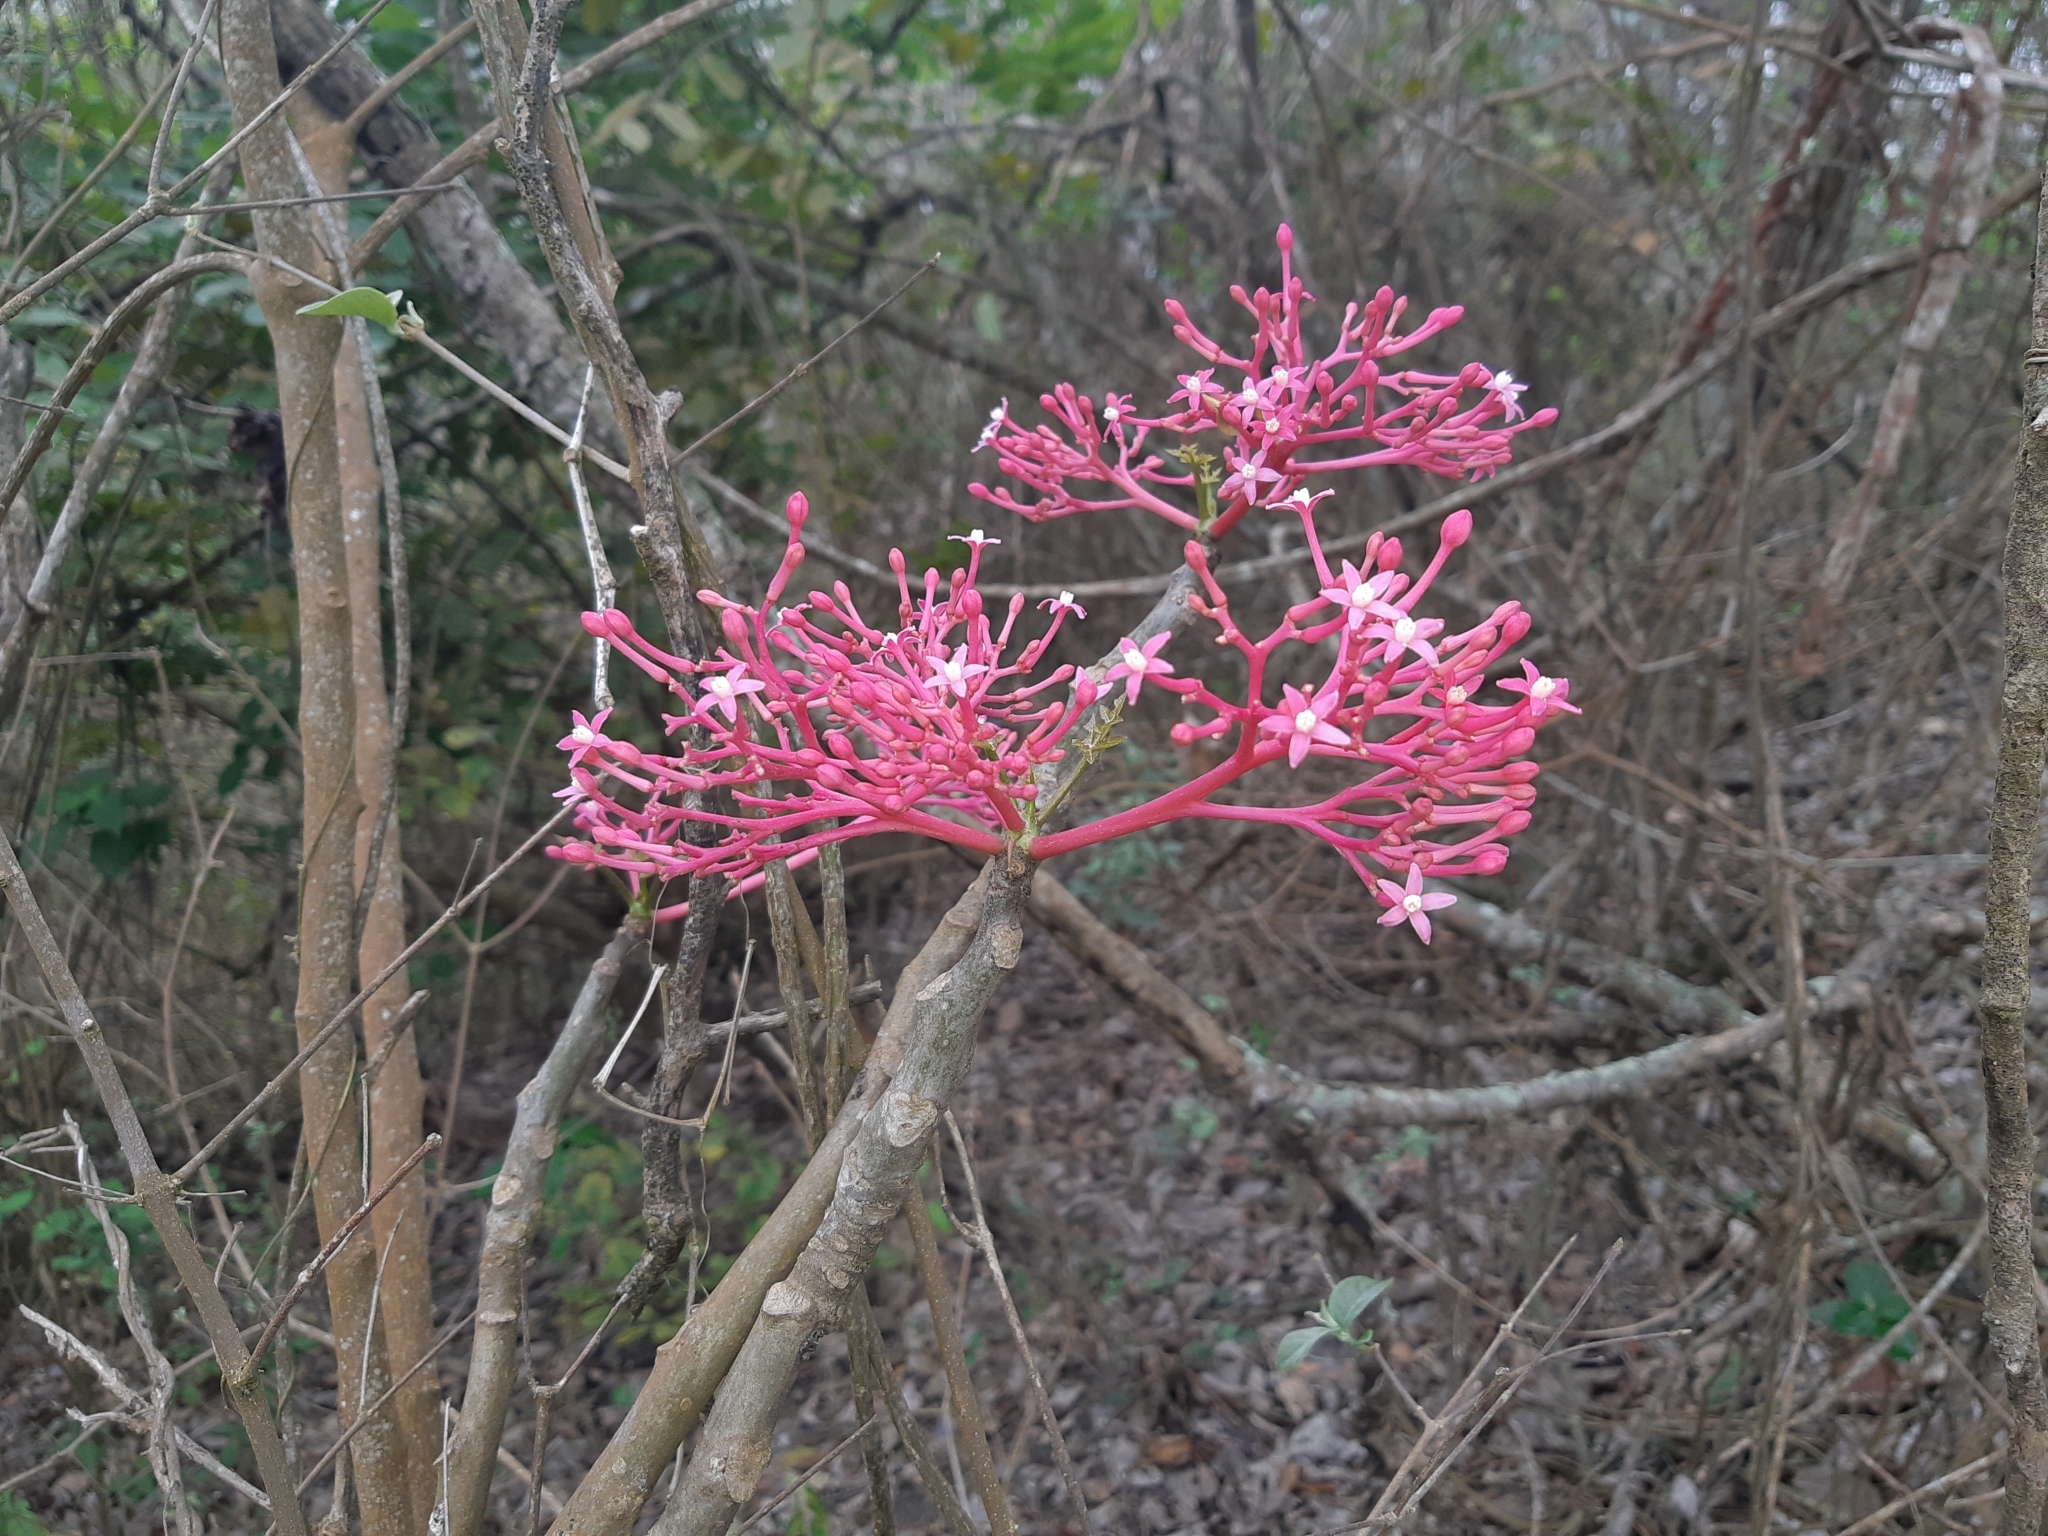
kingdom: Plantae
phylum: Tracheophyta
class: Magnoliopsida
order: Brassicales
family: Caricaceae
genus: Vasconcellea
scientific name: Vasconcellea parviflora
